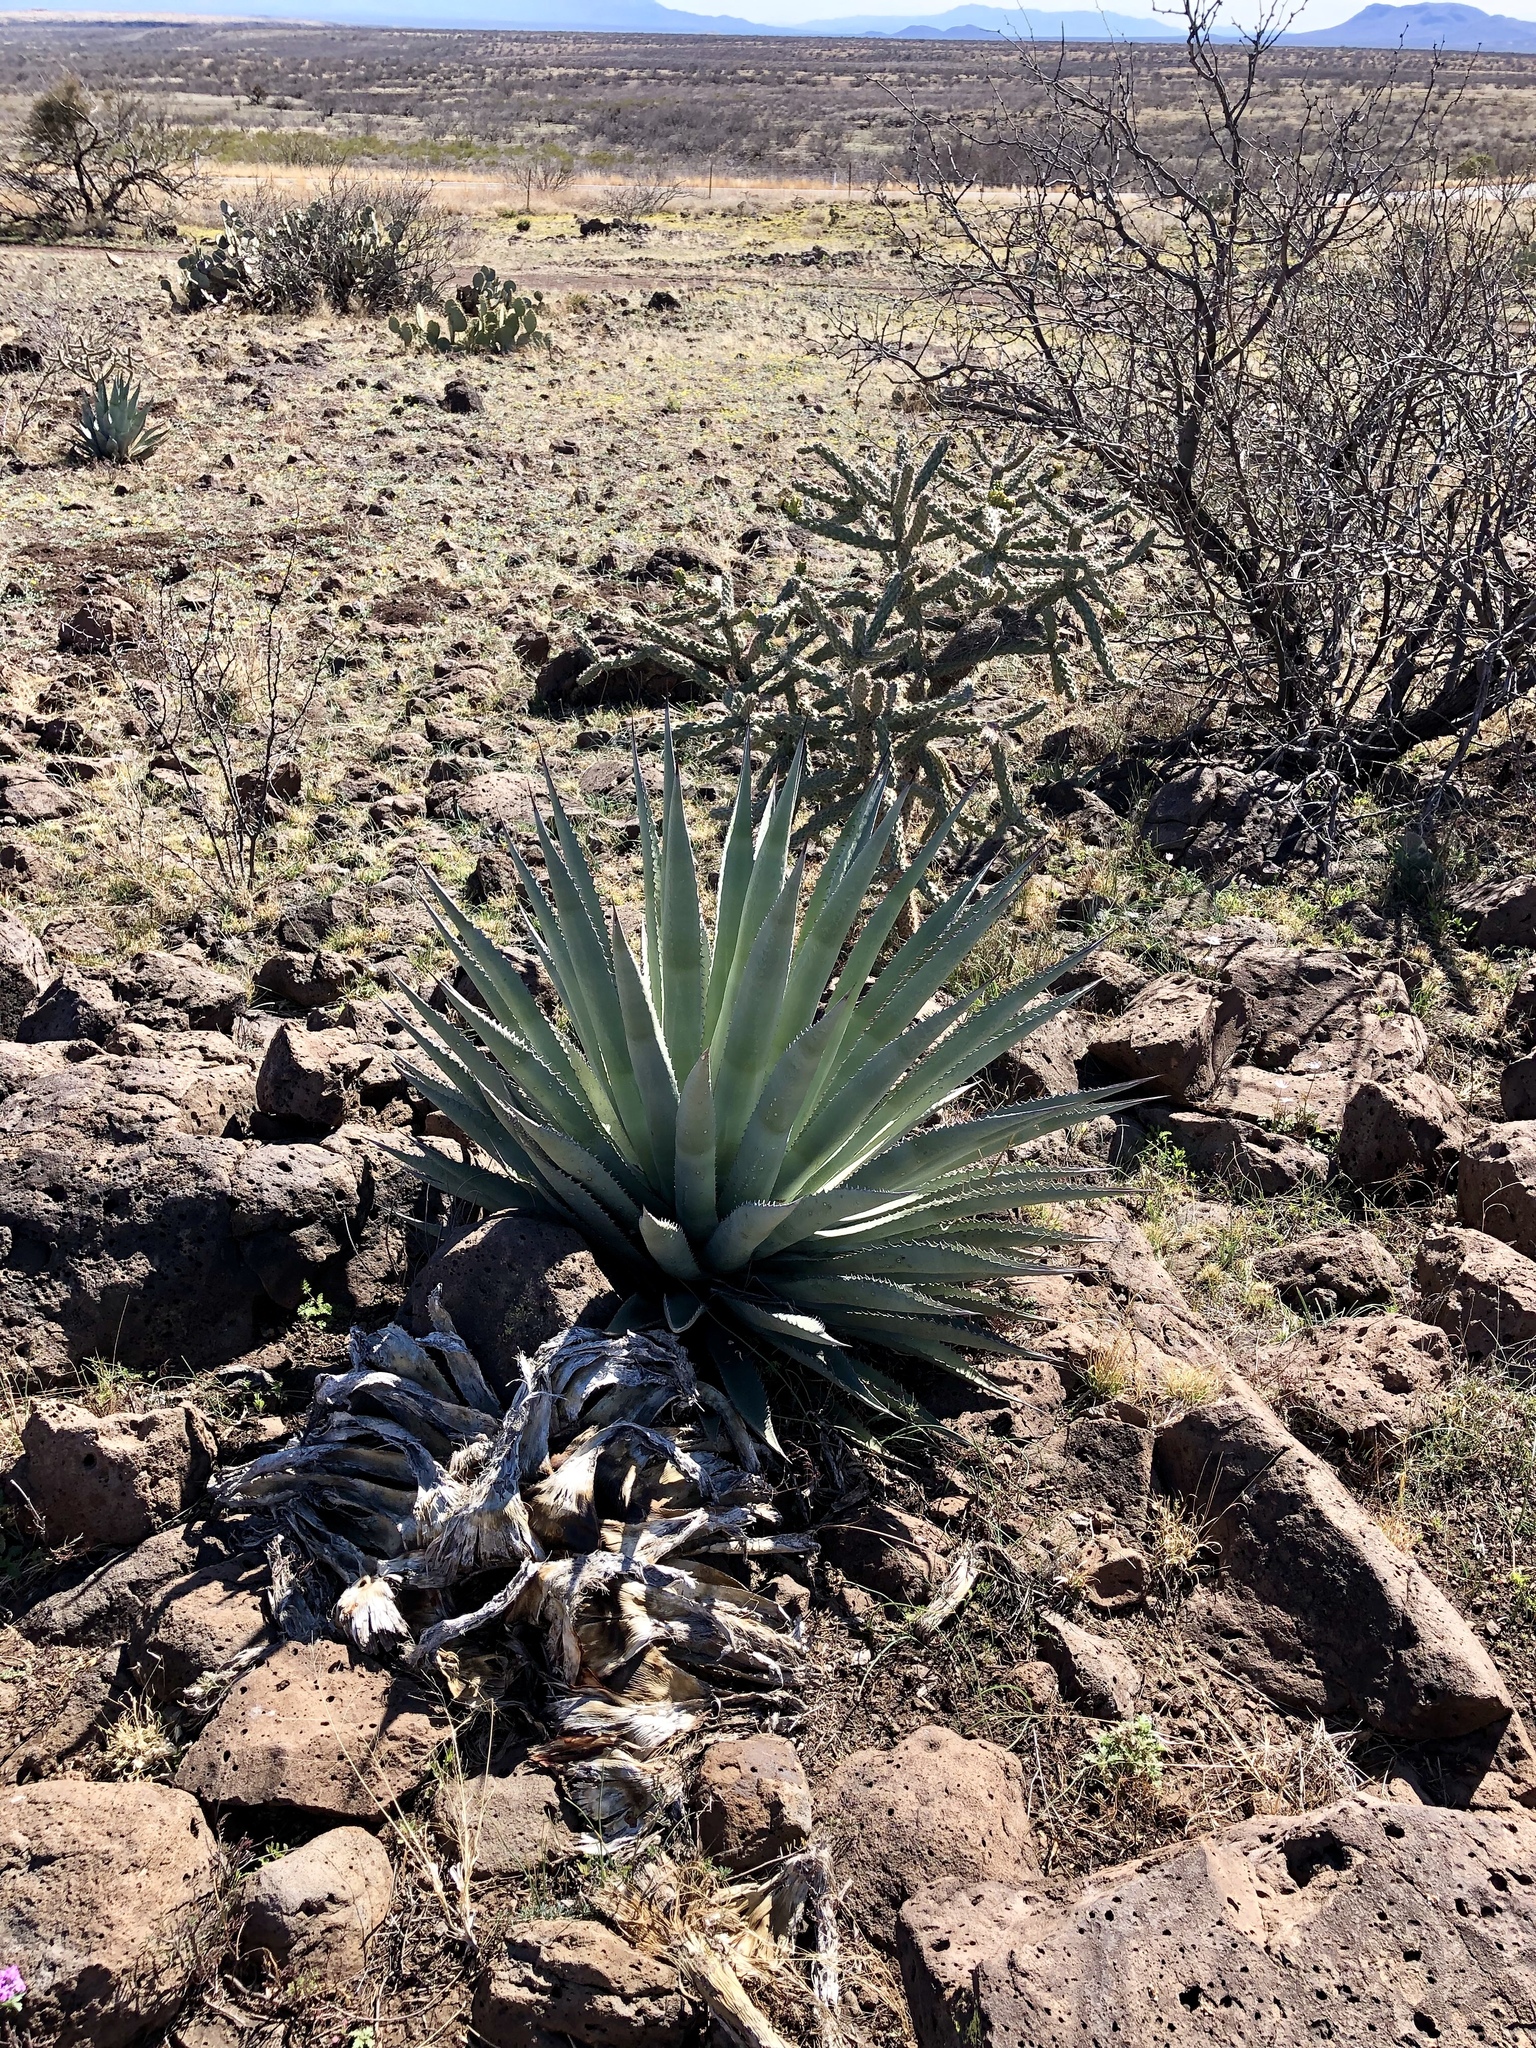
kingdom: Plantae
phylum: Tracheophyta
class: Liliopsida
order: Asparagales
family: Asparagaceae
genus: Agave
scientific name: Agave palmeri
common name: Palmer agave
